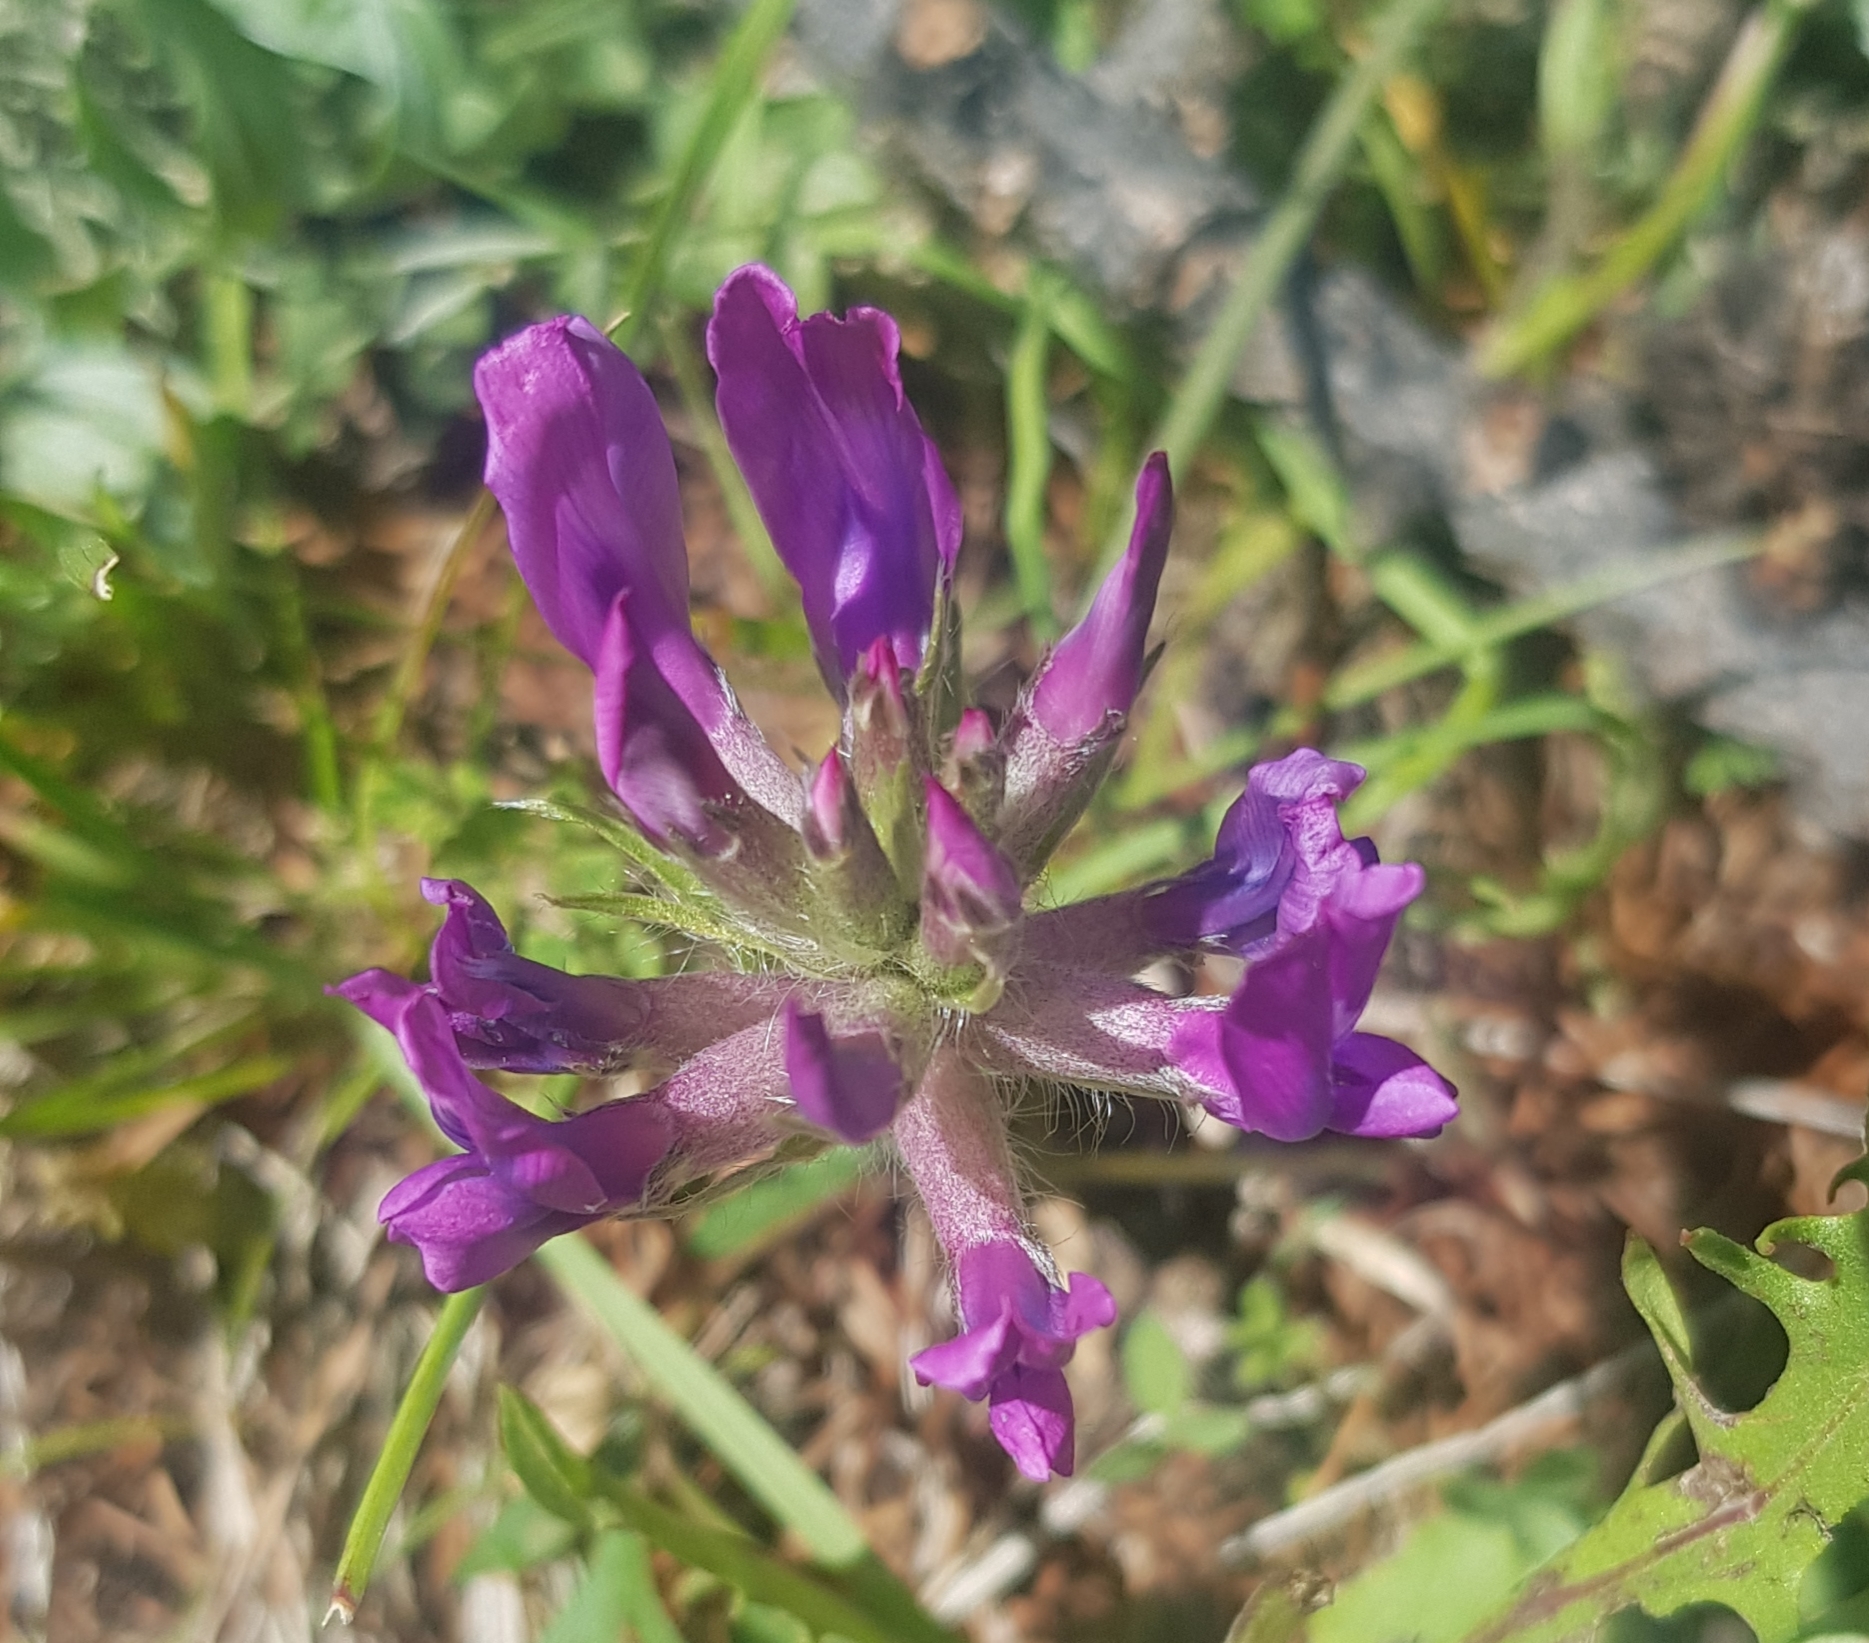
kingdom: Plantae
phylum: Tracheophyta
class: Magnoliopsida
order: Fabales
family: Fabaceae
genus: Oxytropis
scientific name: Oxytropis strobilacea
